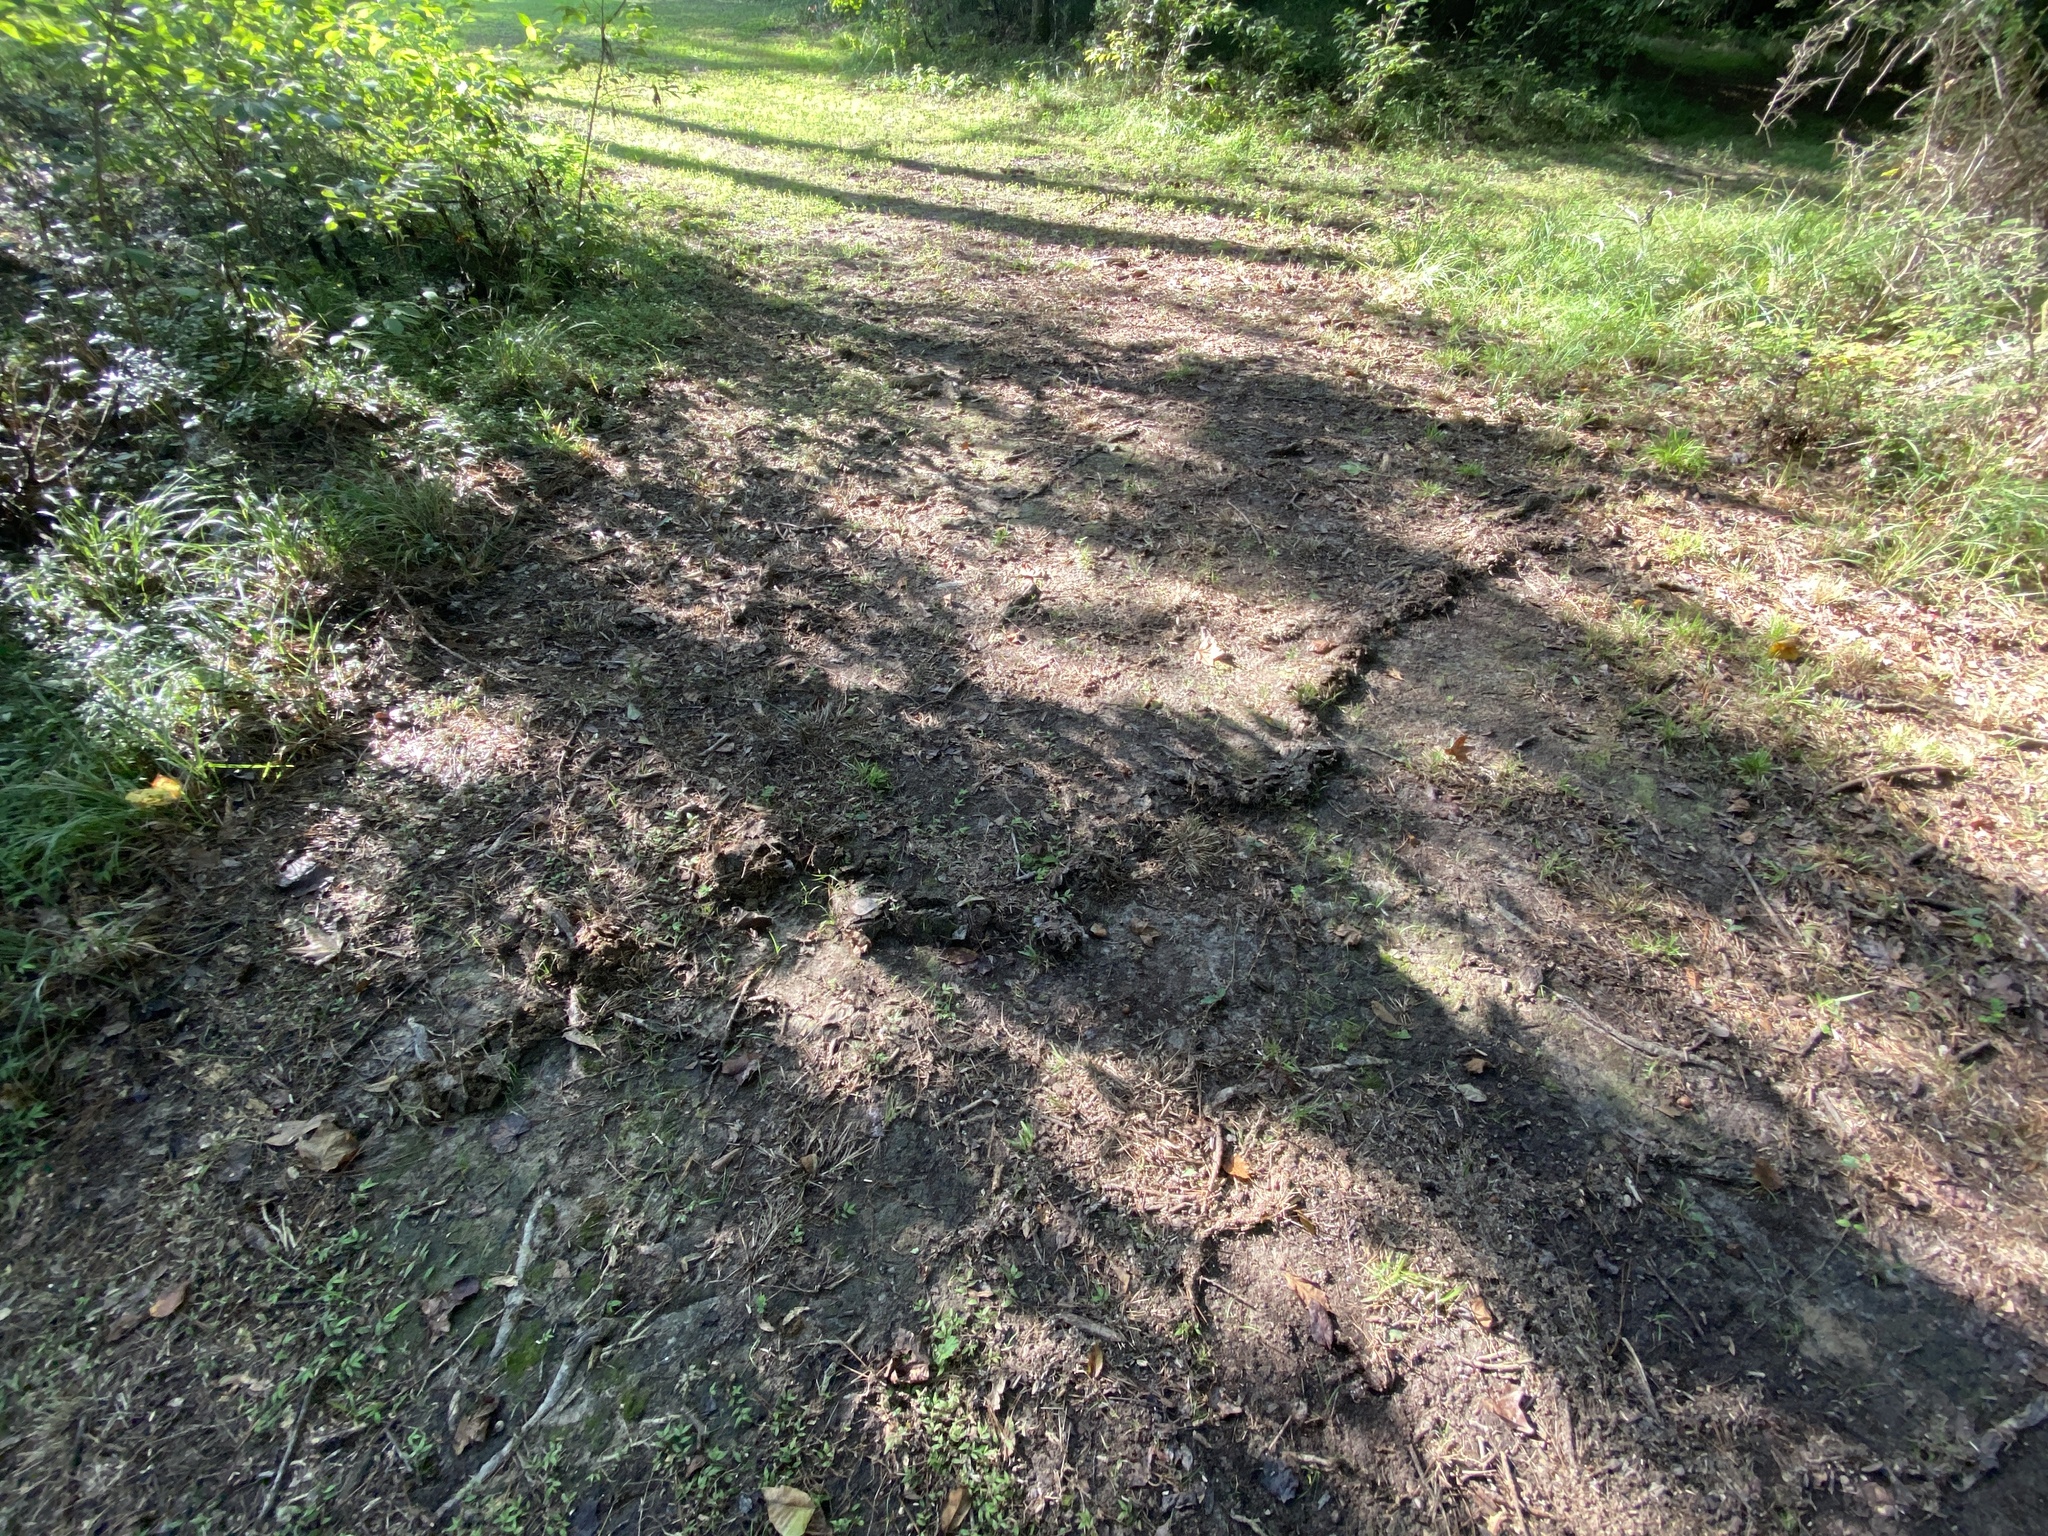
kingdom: Animalia
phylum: Chordata
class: Mammalia
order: Soricomorpha
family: Talpidae
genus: Scalopus
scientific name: Scalopus aquaticus
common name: Eastern mole
